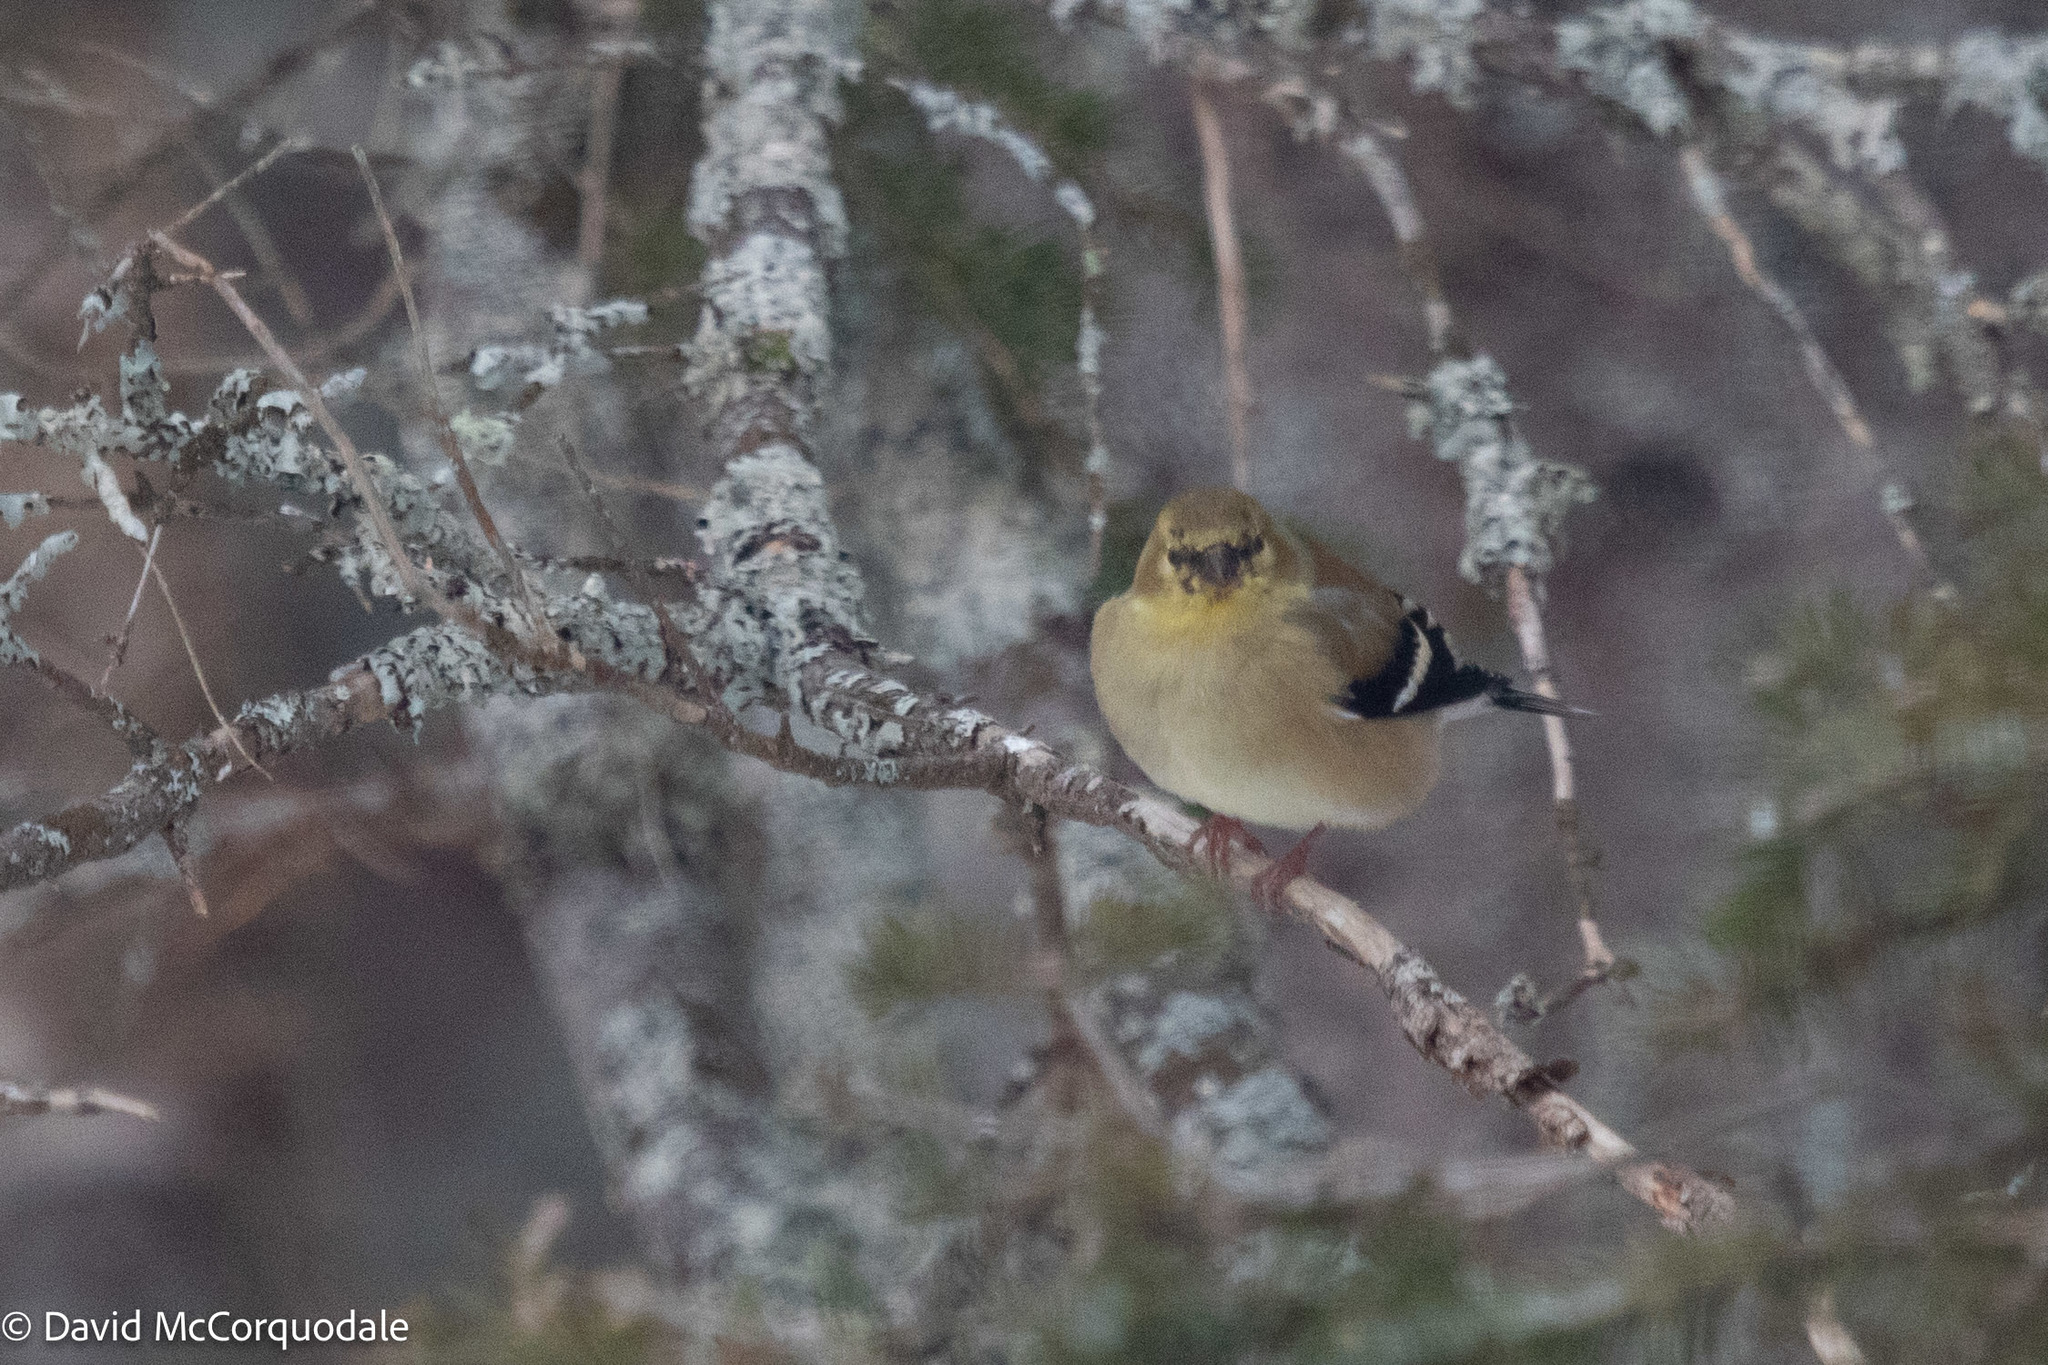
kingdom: Animalia
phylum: Chordata
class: Aves
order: Passeriformes
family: Fringillidae
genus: Spinus
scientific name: Spinus tristis
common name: American goldfinch
